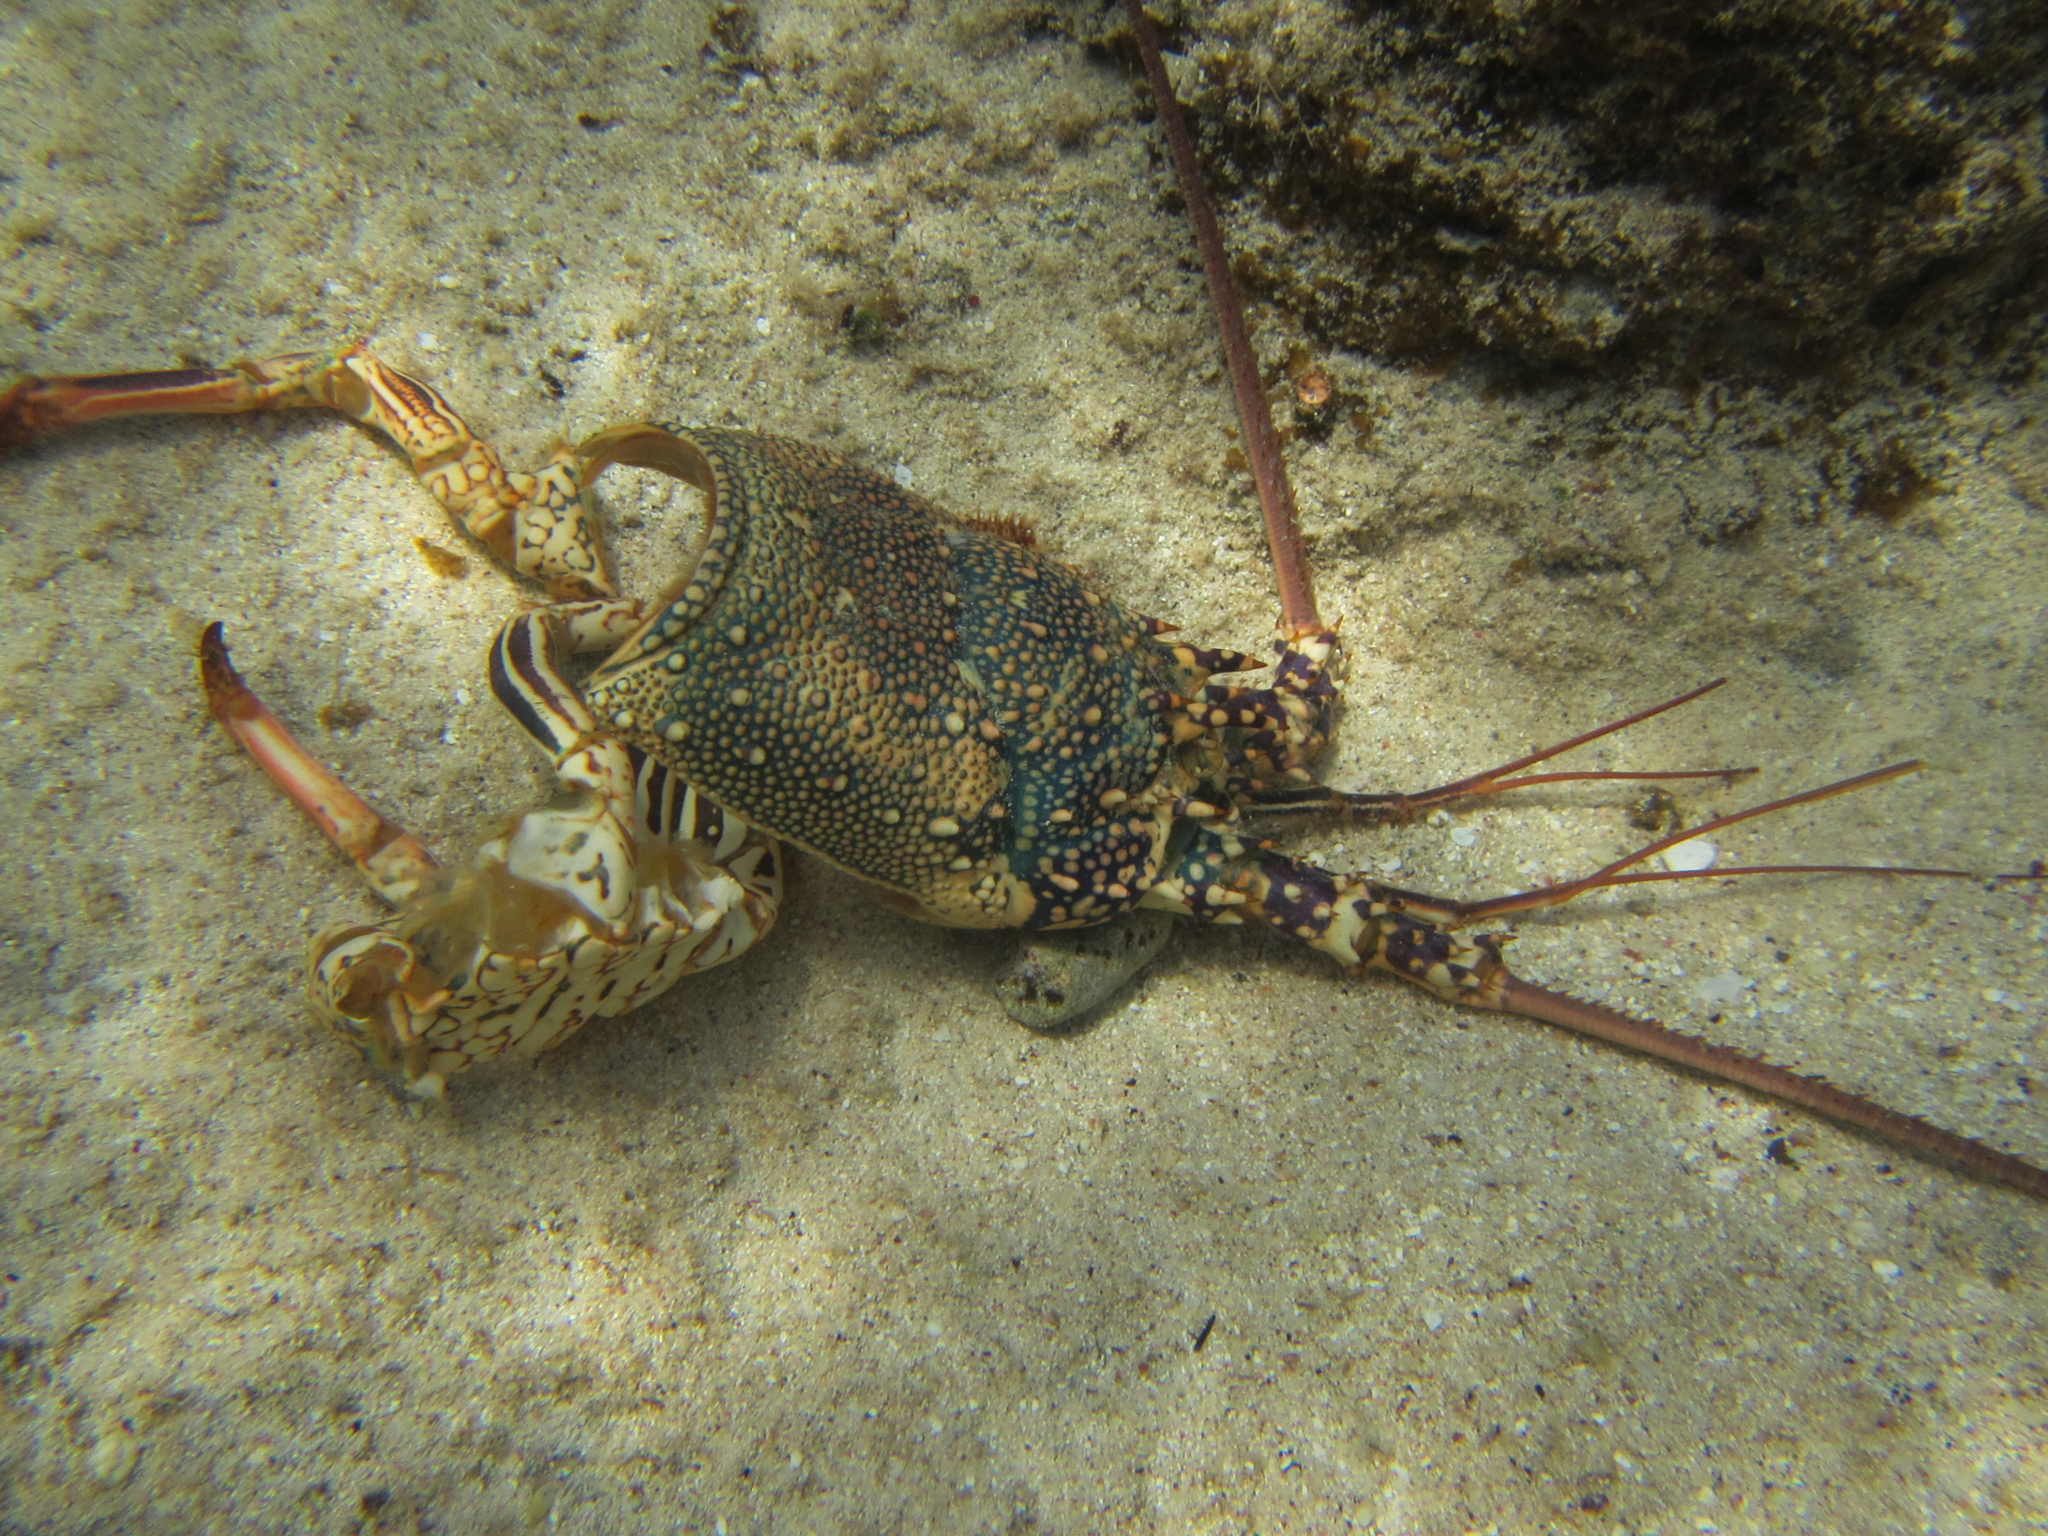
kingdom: Animalia
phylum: Arthropoda
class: Malacostraca
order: Decapoda
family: Palinuridae
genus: Panulirus
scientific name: Panulirus penicillatus
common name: Pronghorn spiny lobster
